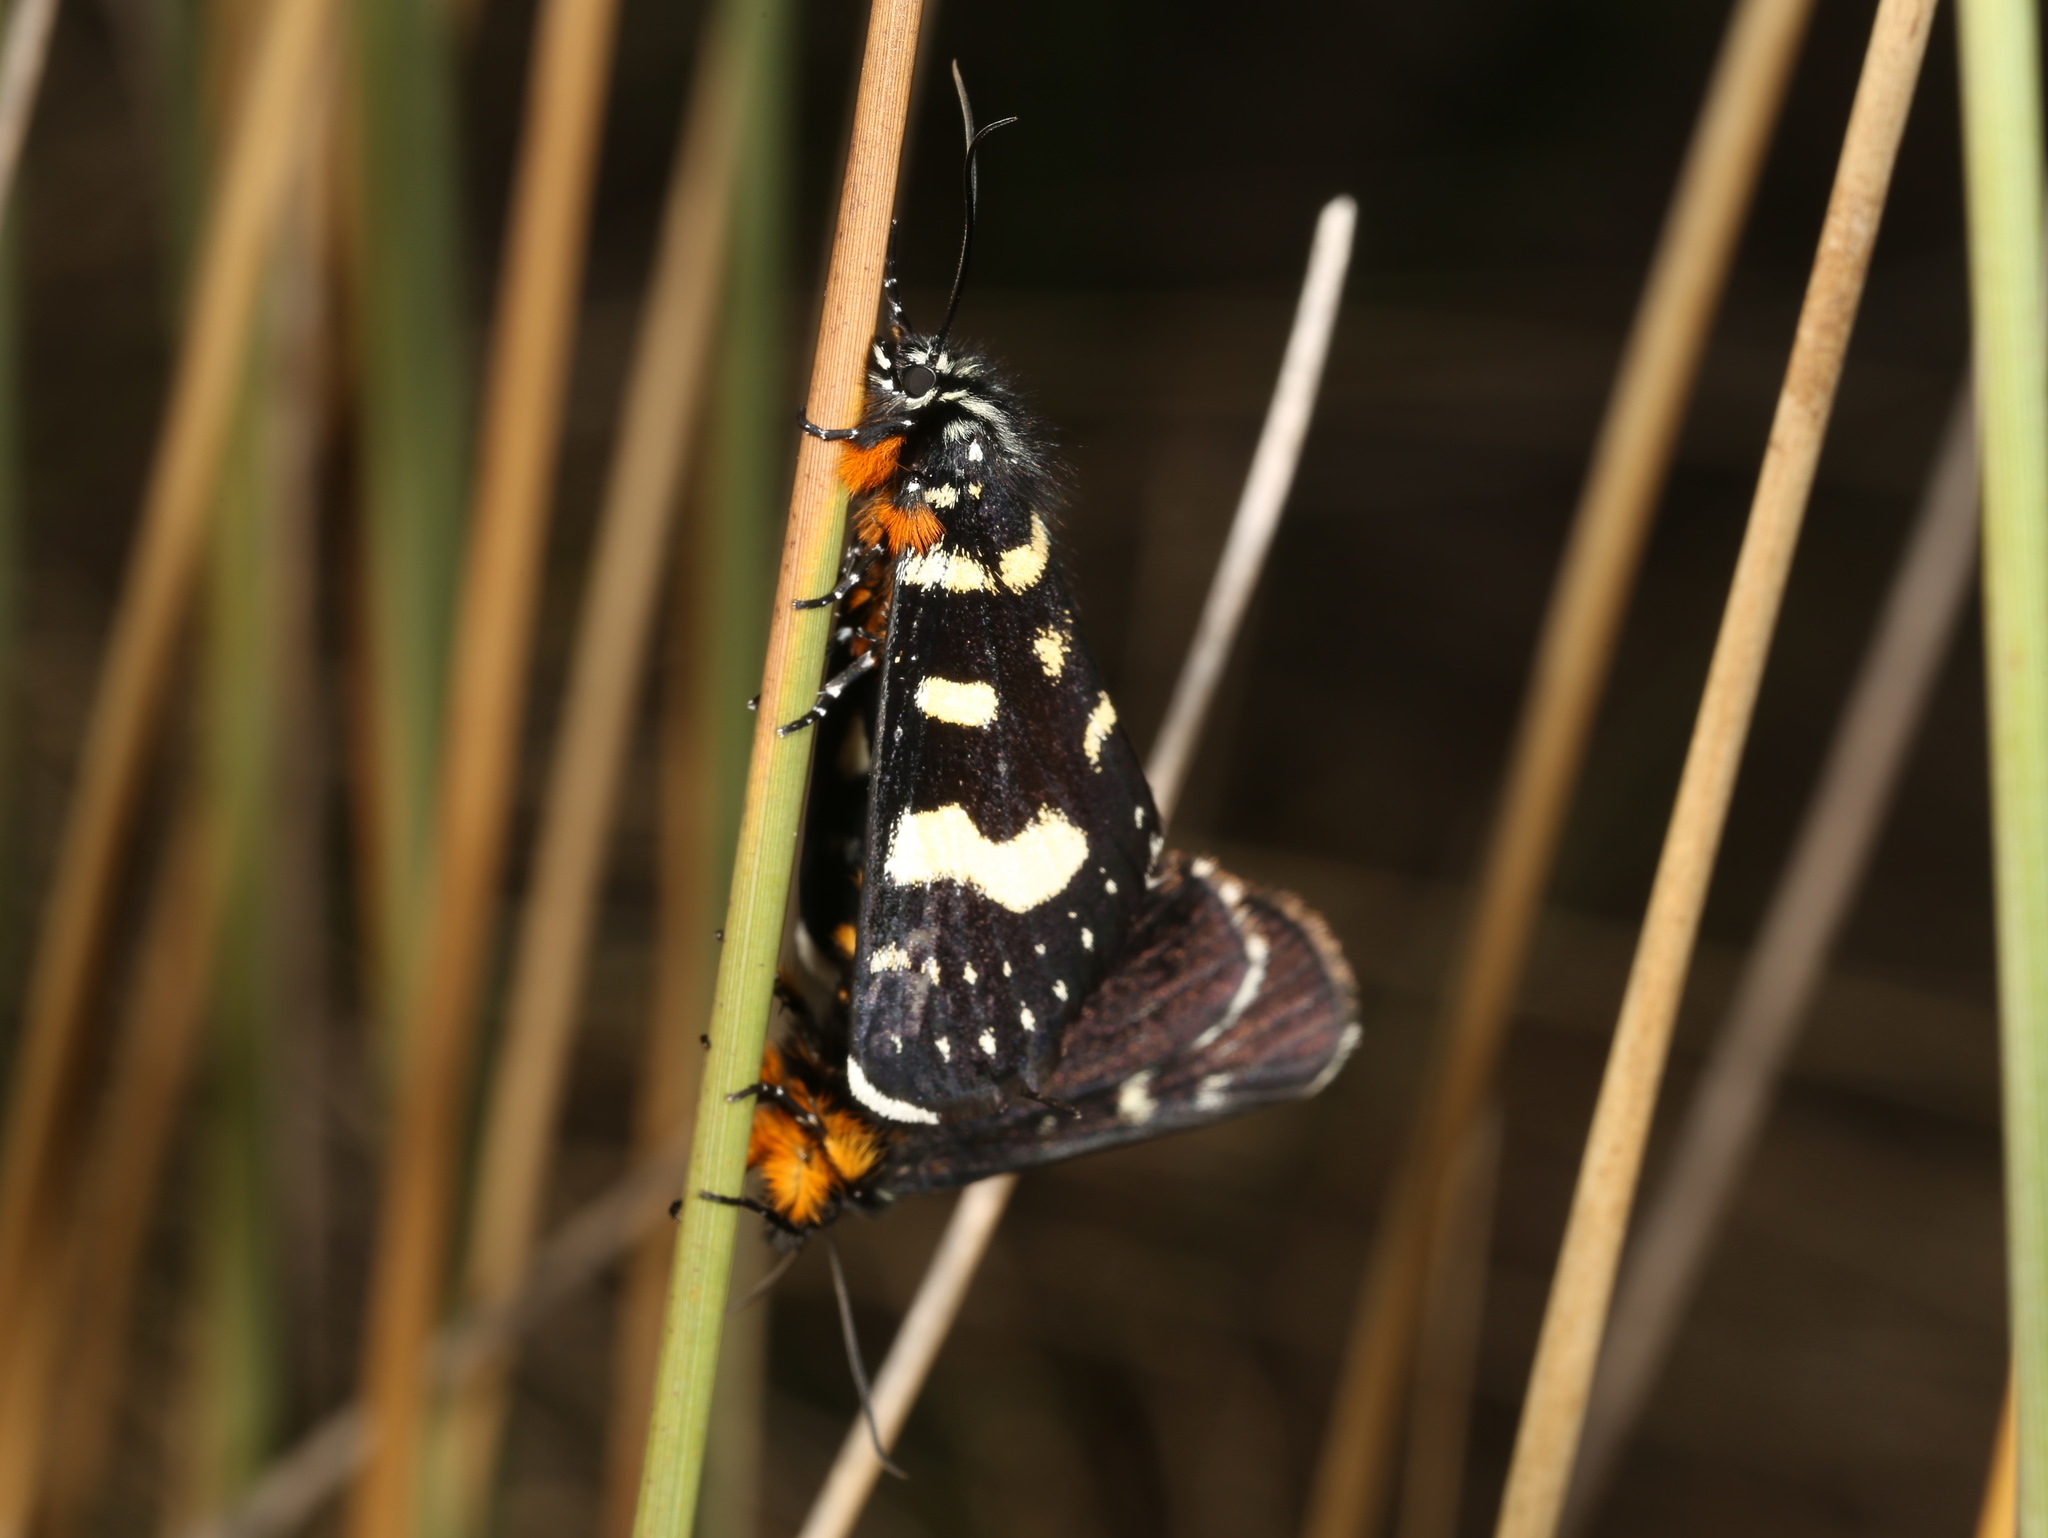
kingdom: Animalia
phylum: Arthropoda
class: Insecta
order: Lepidoptera
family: Noctuidae
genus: Phalaenoides
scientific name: Phalaenoides tristifica
